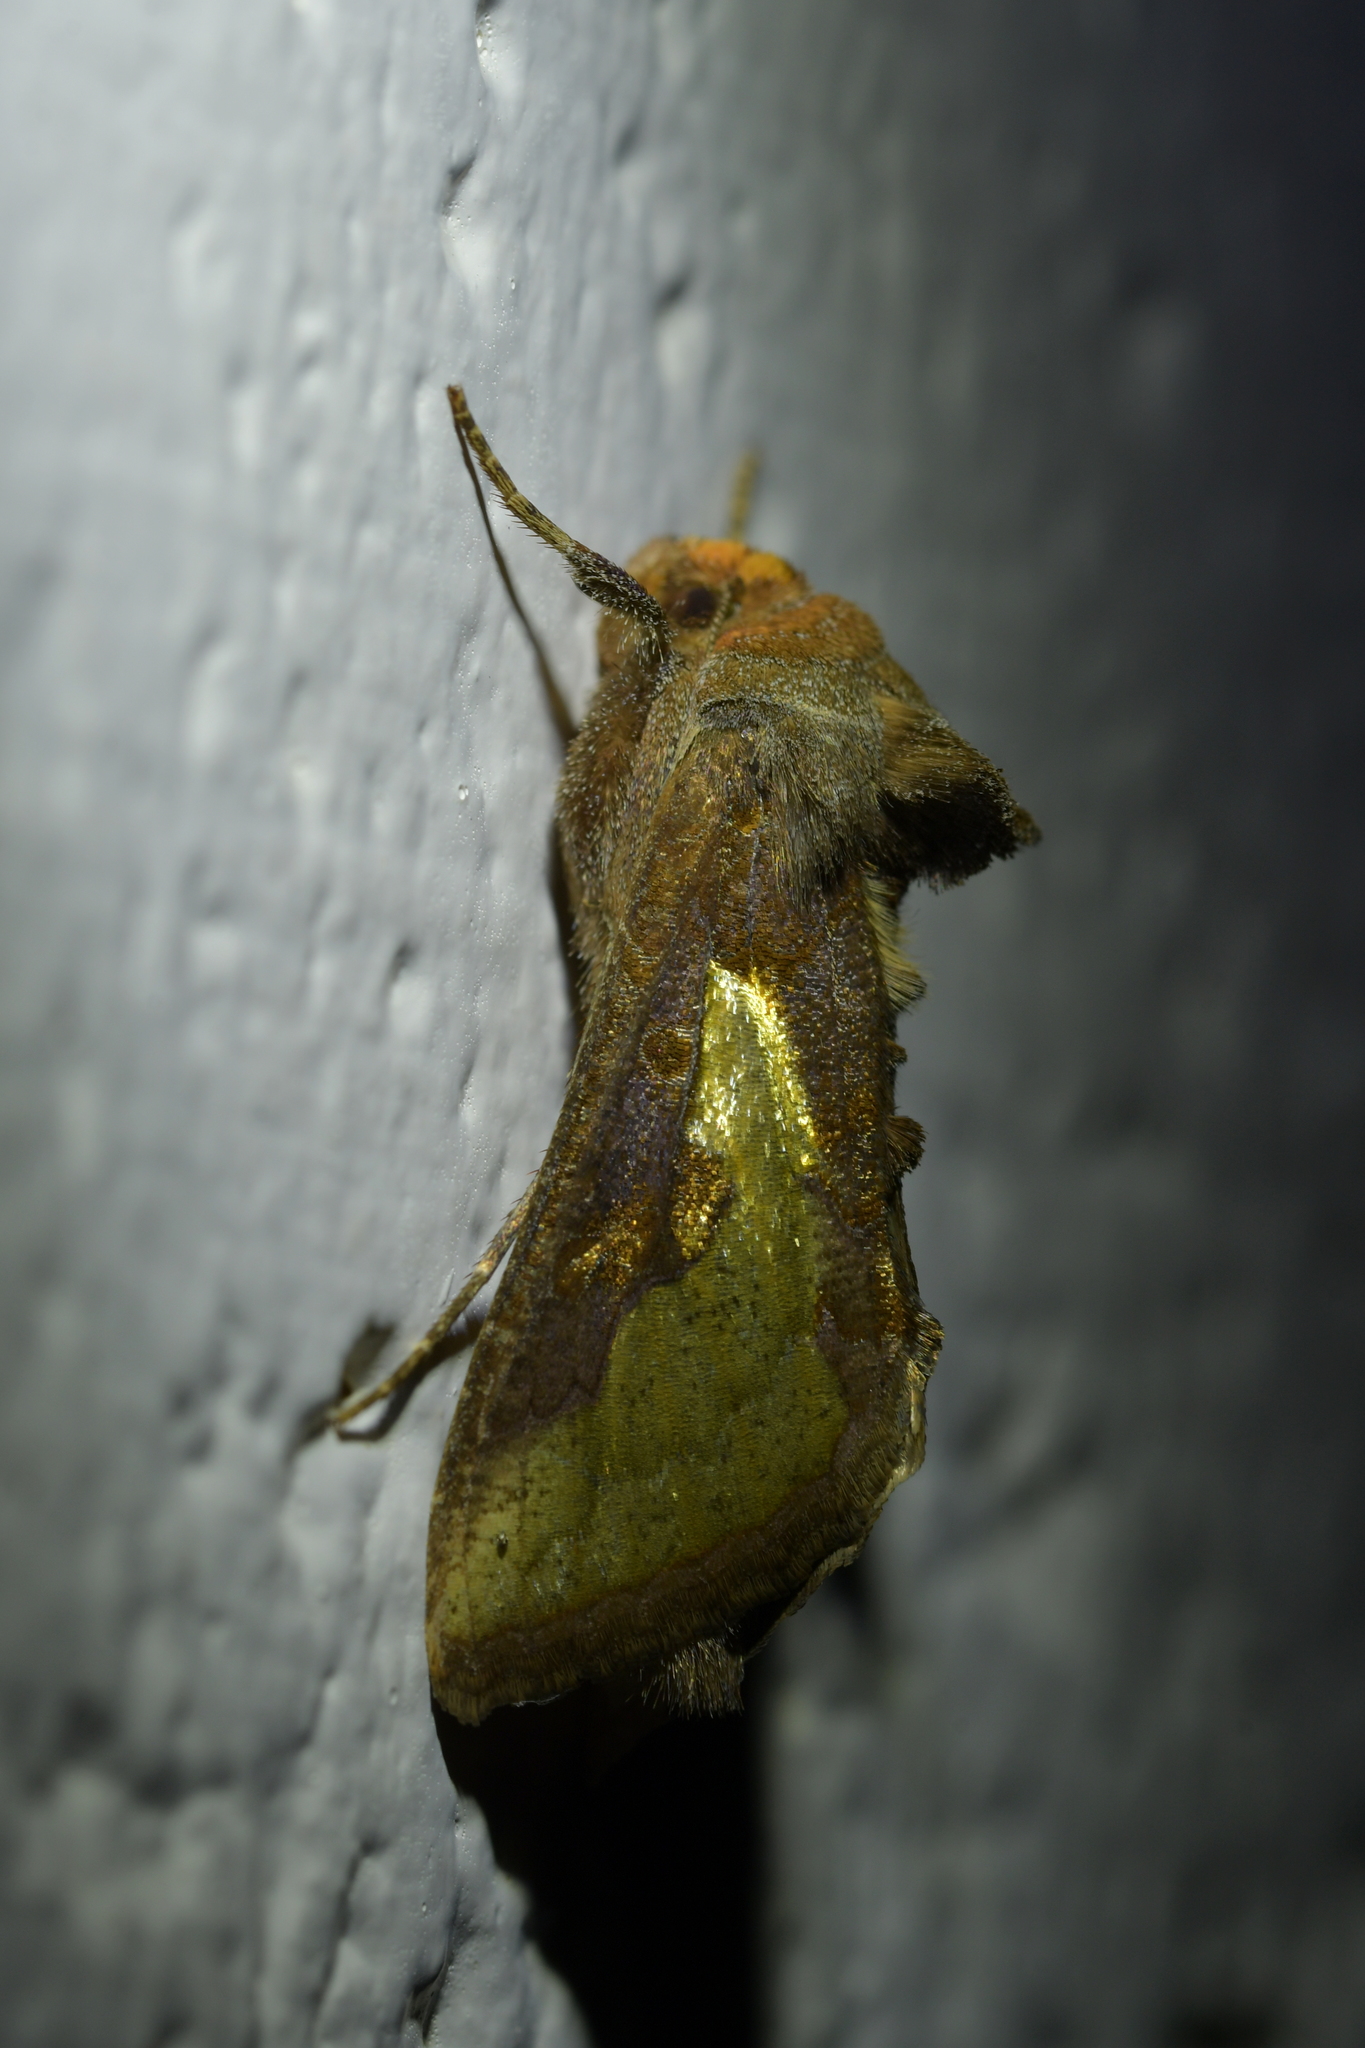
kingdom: Animalia
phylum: Arthropoda
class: Insecta
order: Lepidoptera
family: Noctuidae
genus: Thysanoplusia
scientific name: Thysanoplusia orichalcea
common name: Slender burnished brass, golden plusia
